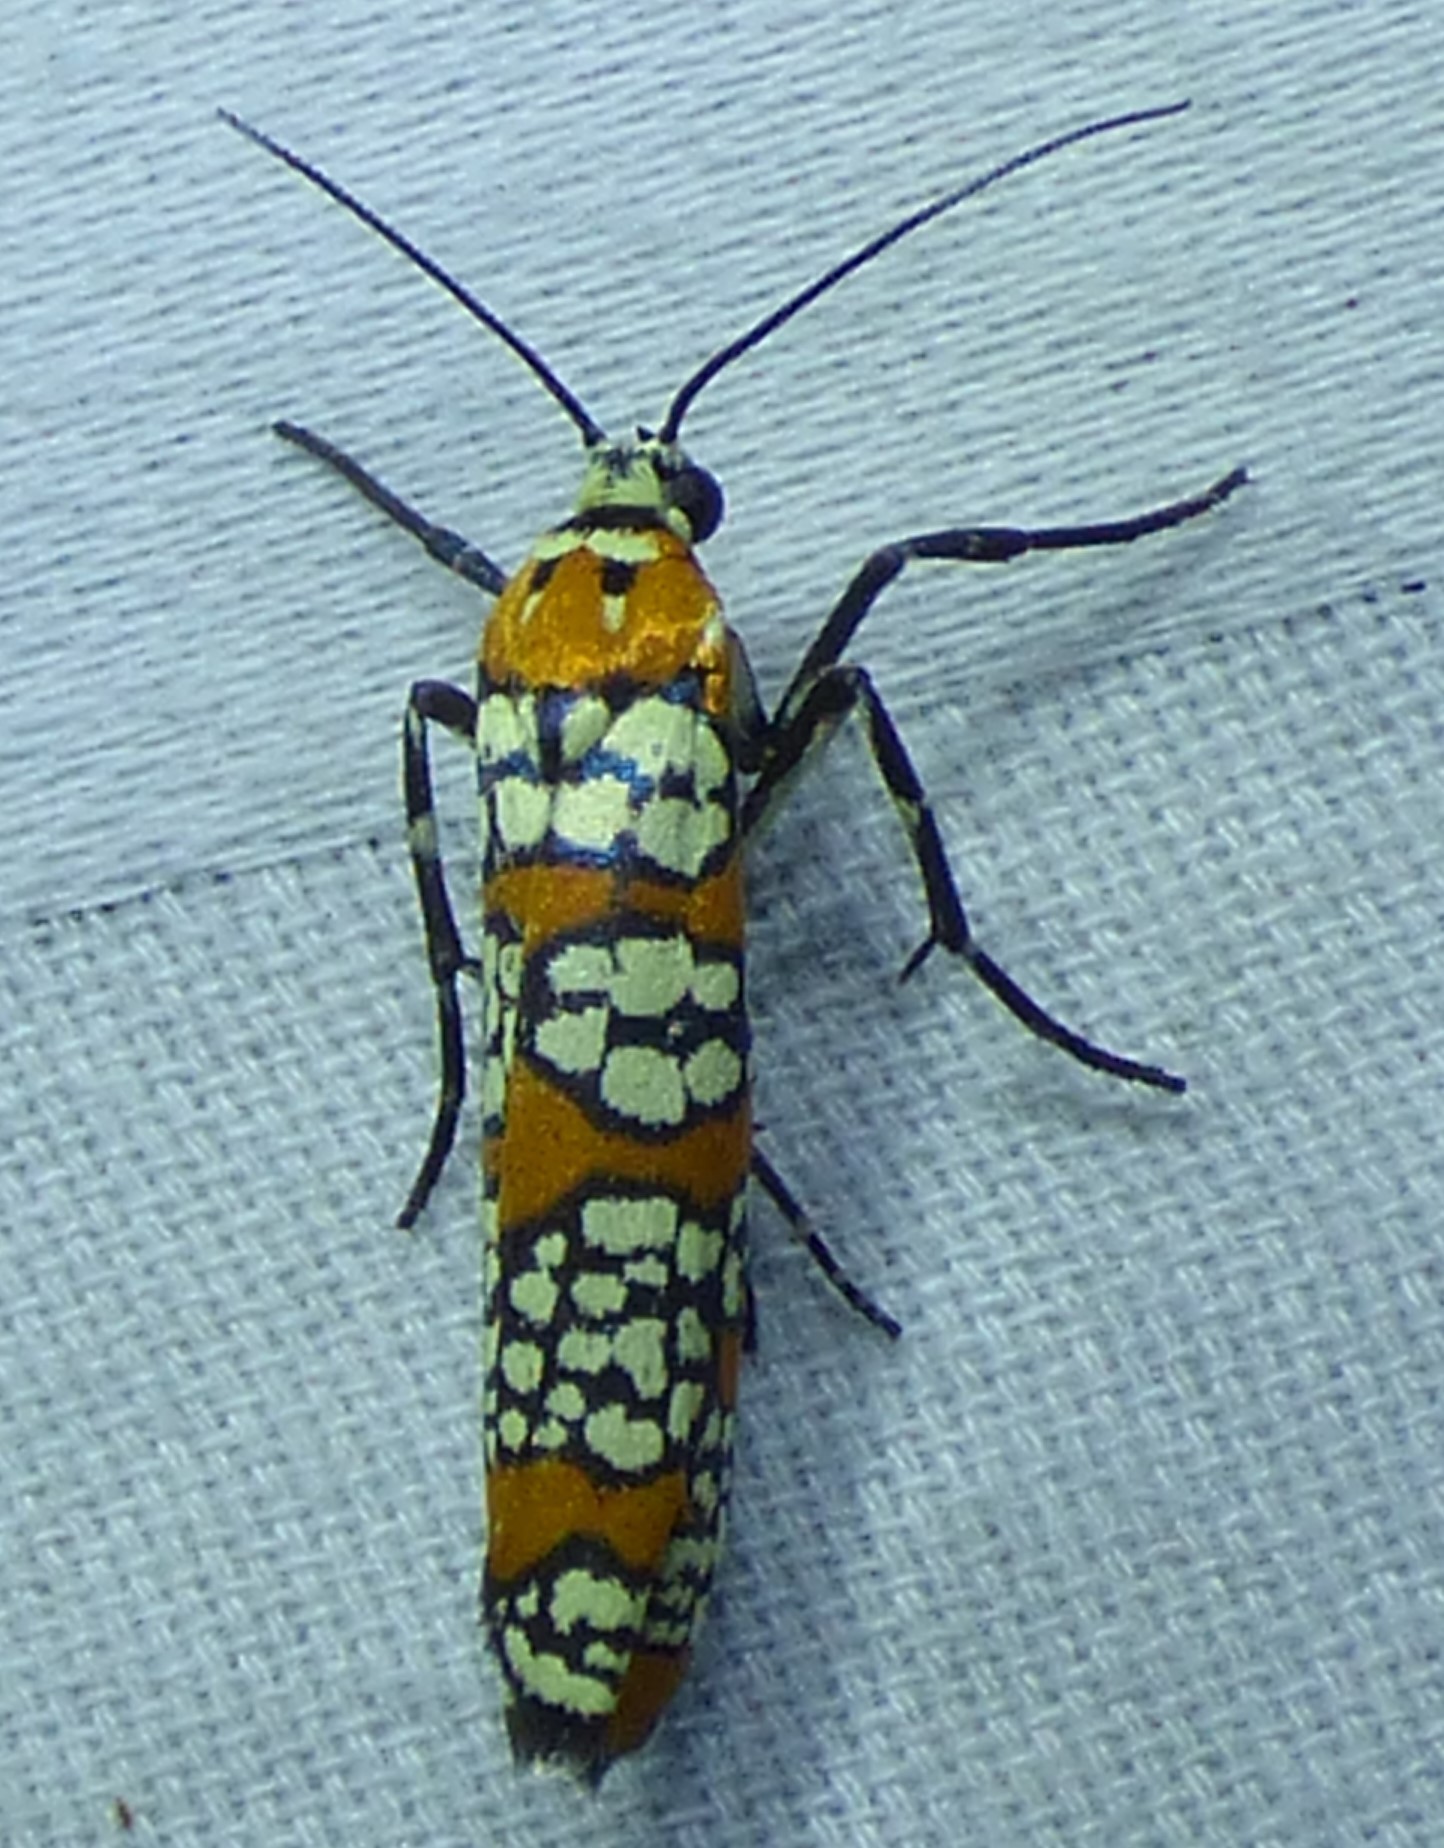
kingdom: Animalia
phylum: Arthropoda
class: Insecta
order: Lepidoptera
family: Attevidae
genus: Atteva
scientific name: Atteva punctella
